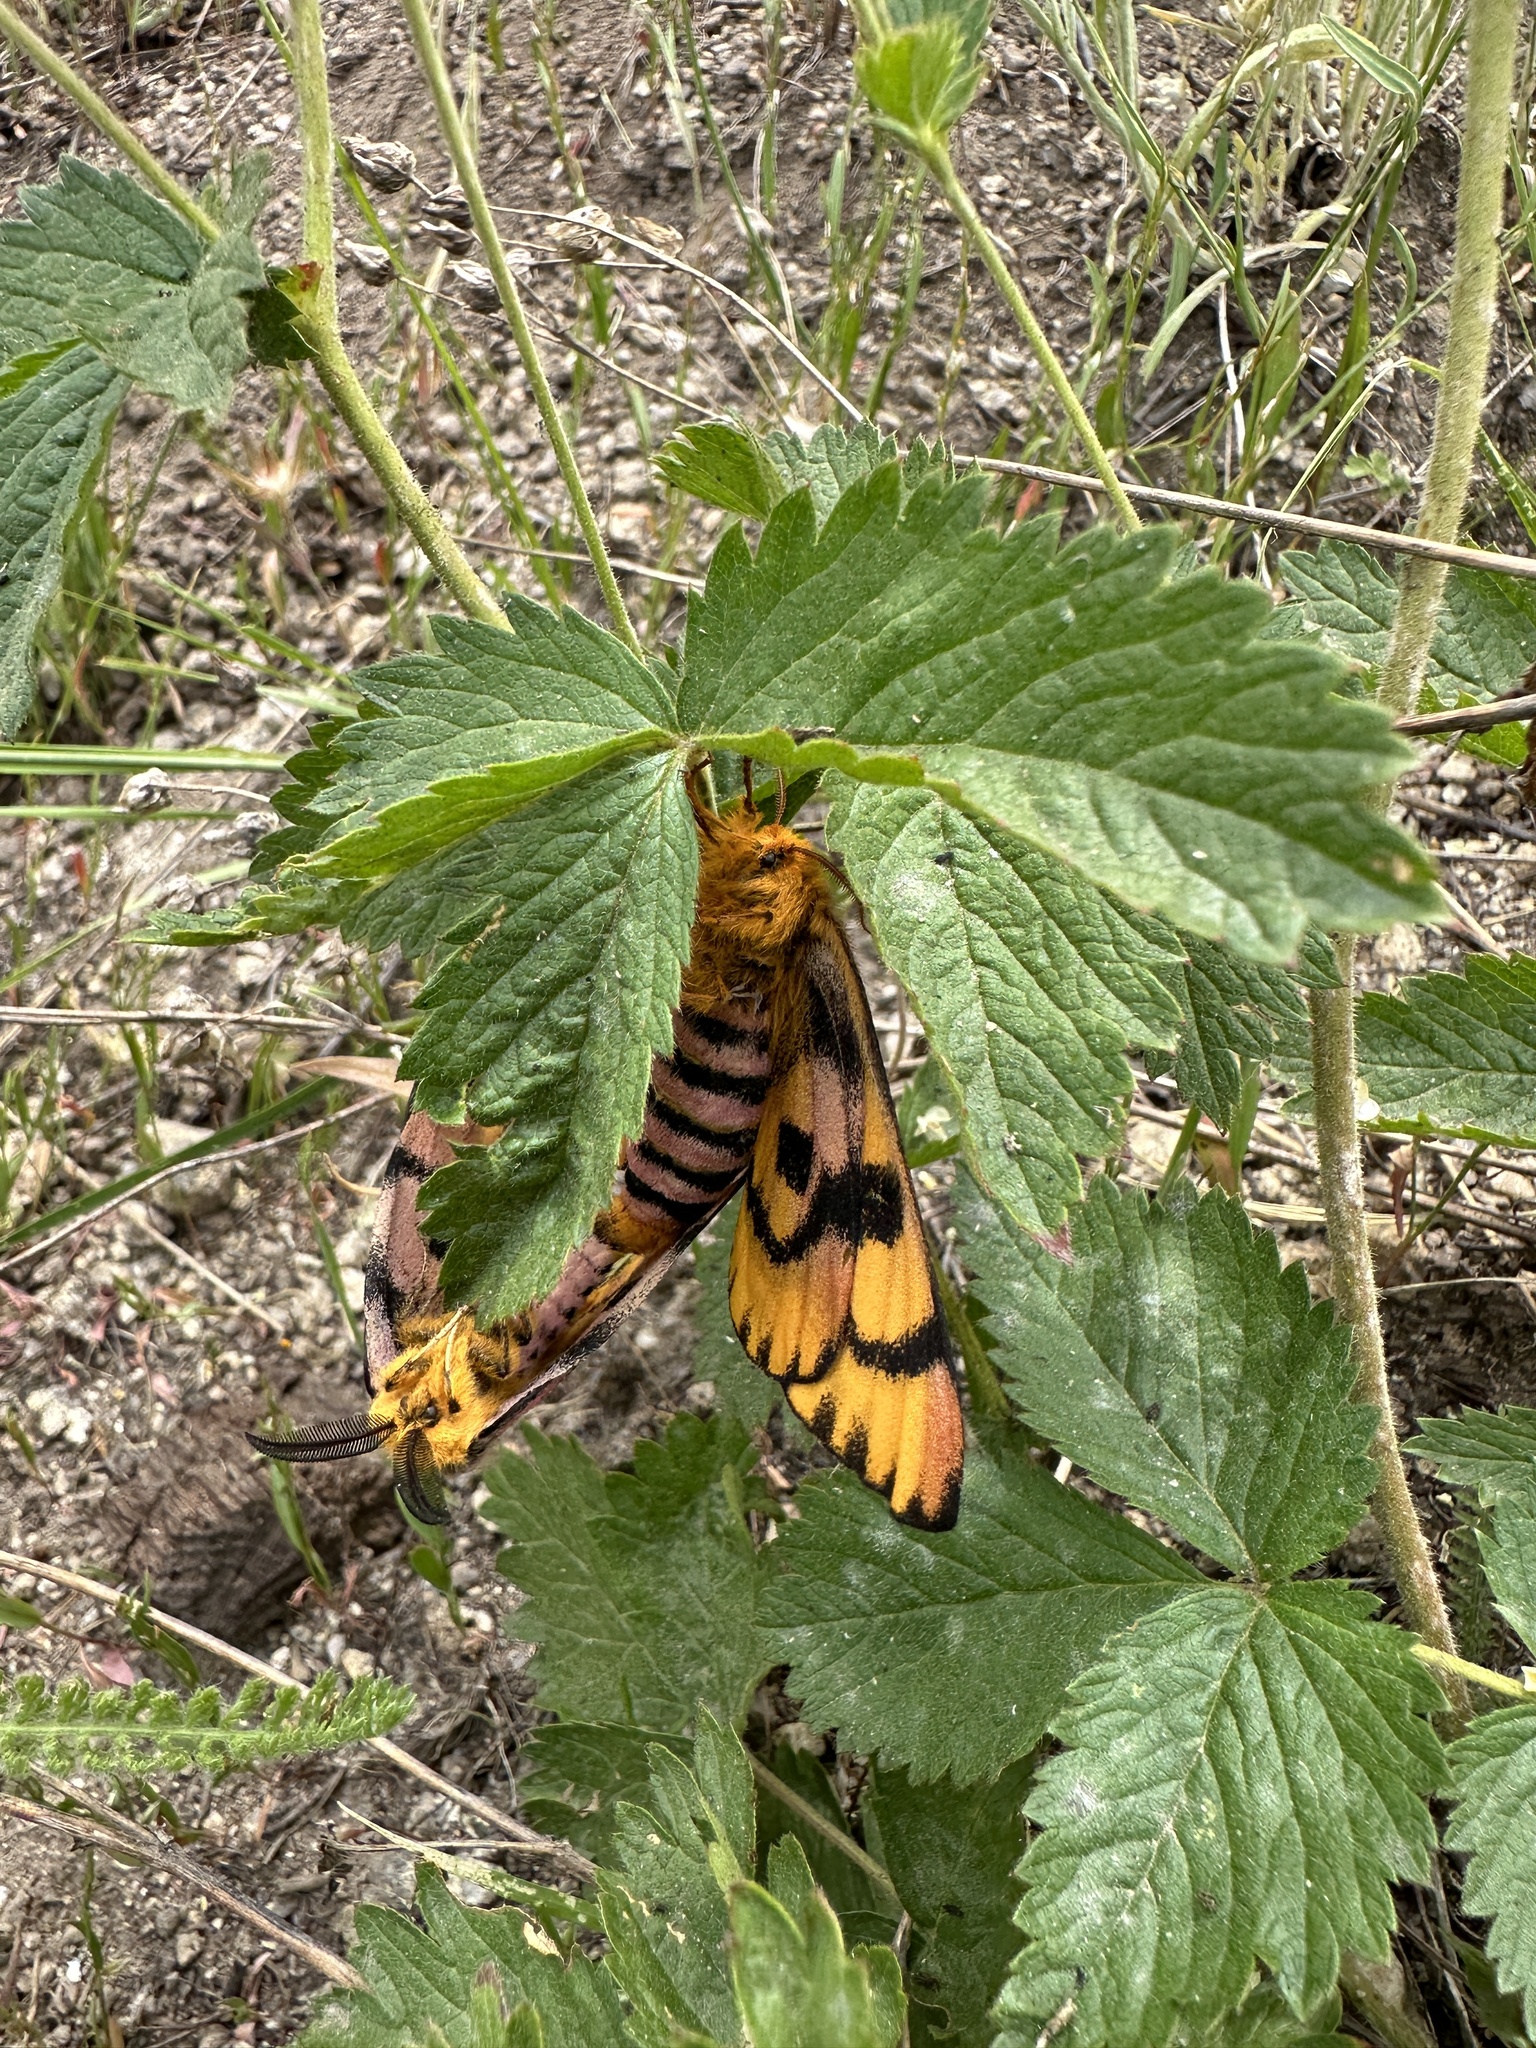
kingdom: Animalia
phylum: Arthropoda
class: Insecta
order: Lepidoptera
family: Saturniidae
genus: Hemileuca
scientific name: Hemileuca eglanterina
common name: Western sheepmoth
